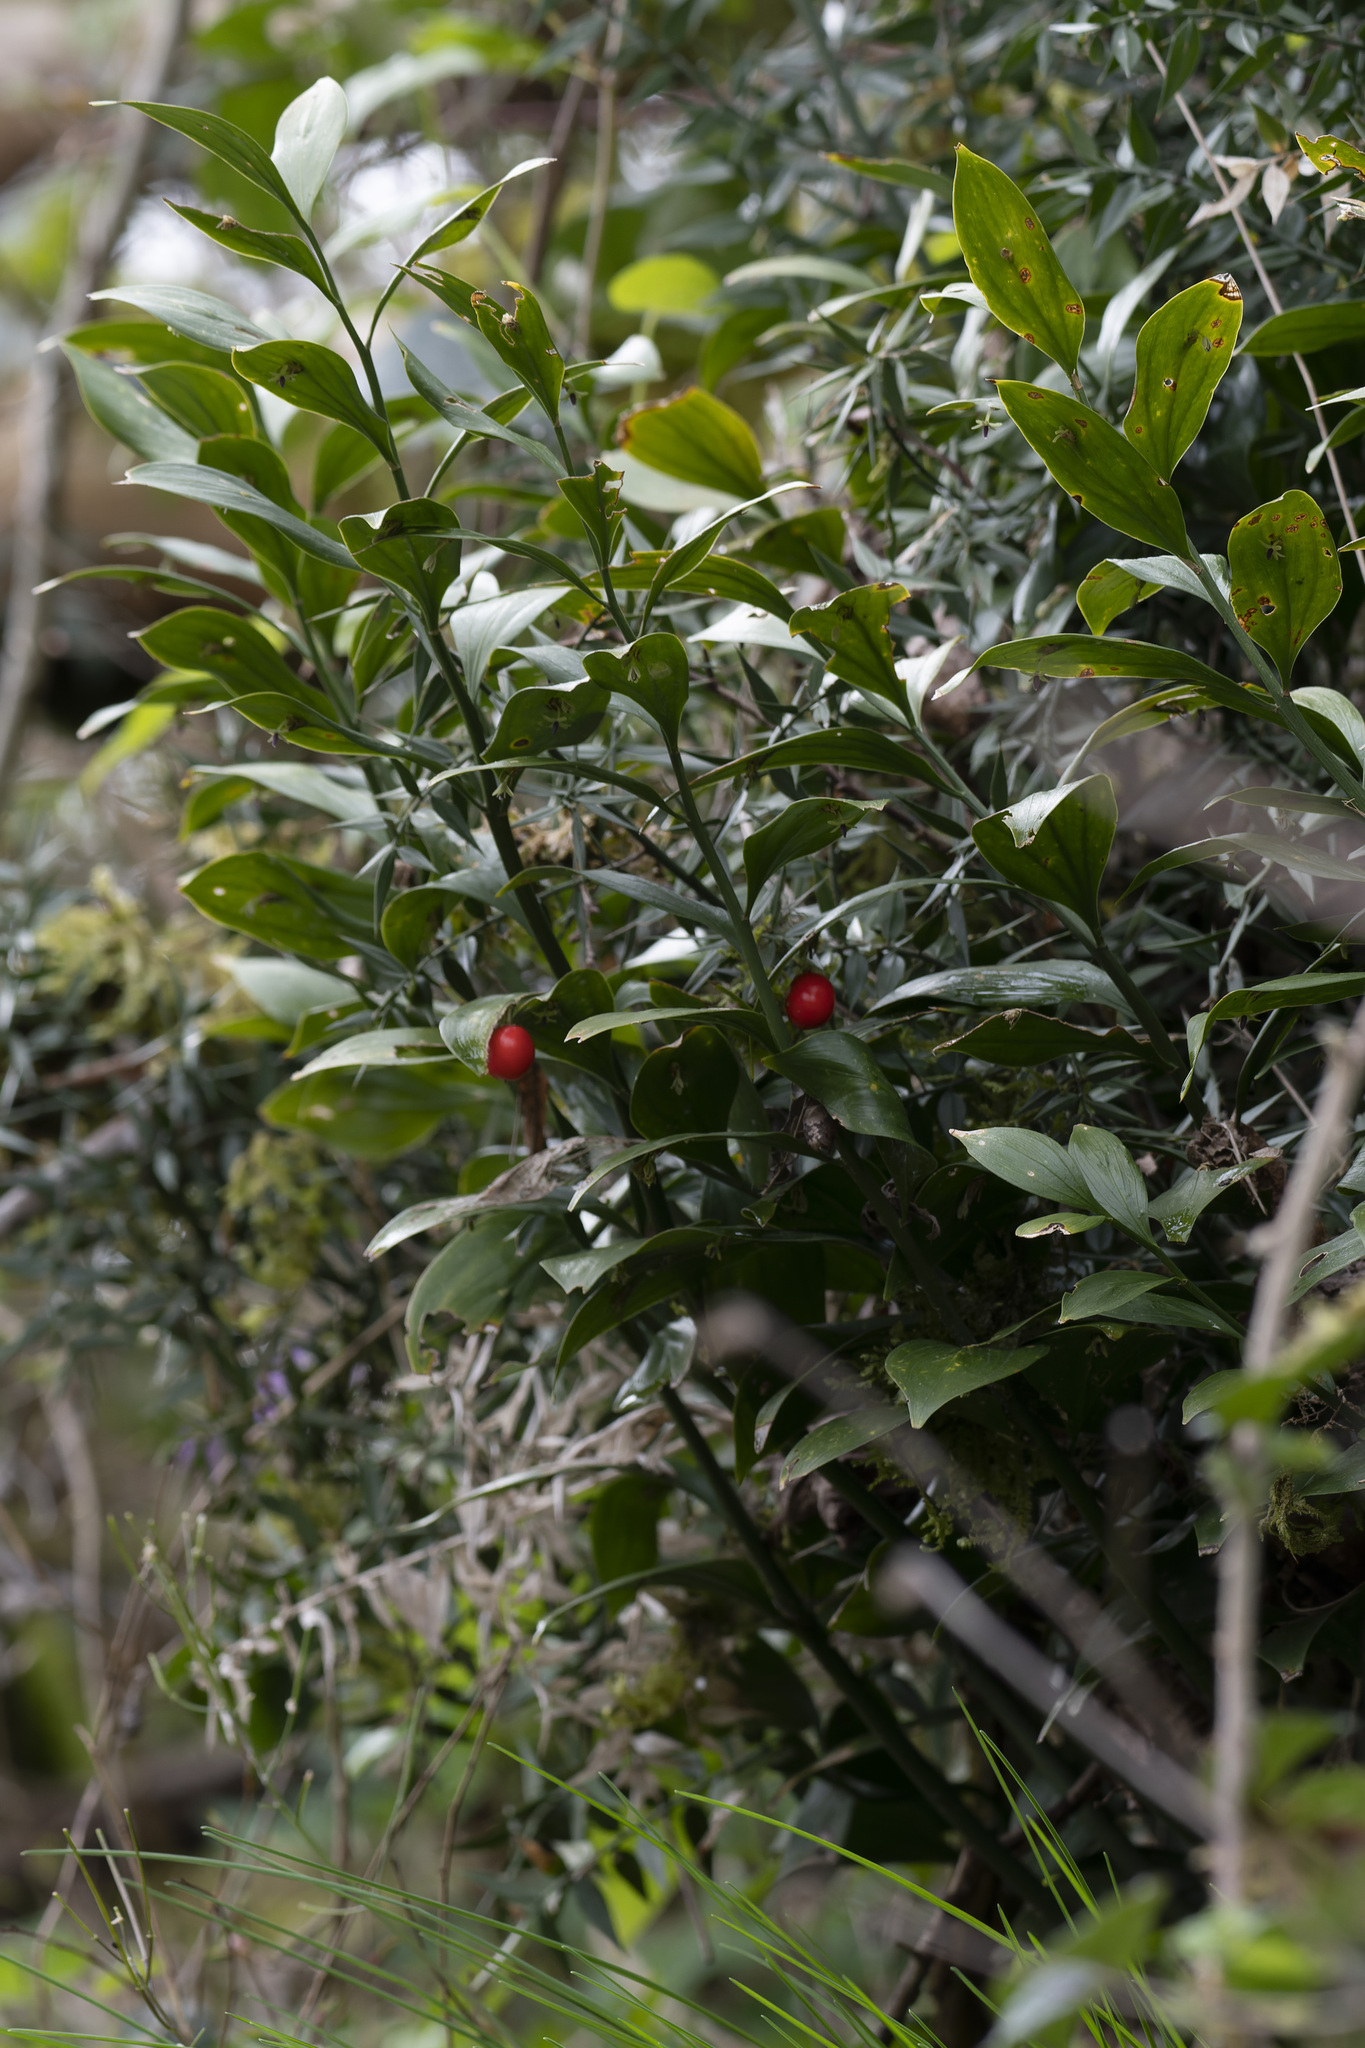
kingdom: Plantae
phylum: Tracheophyta
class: Liliopsida
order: Asparagales
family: Asparagaceae
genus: Ruscus
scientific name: Ruscus colchicus
